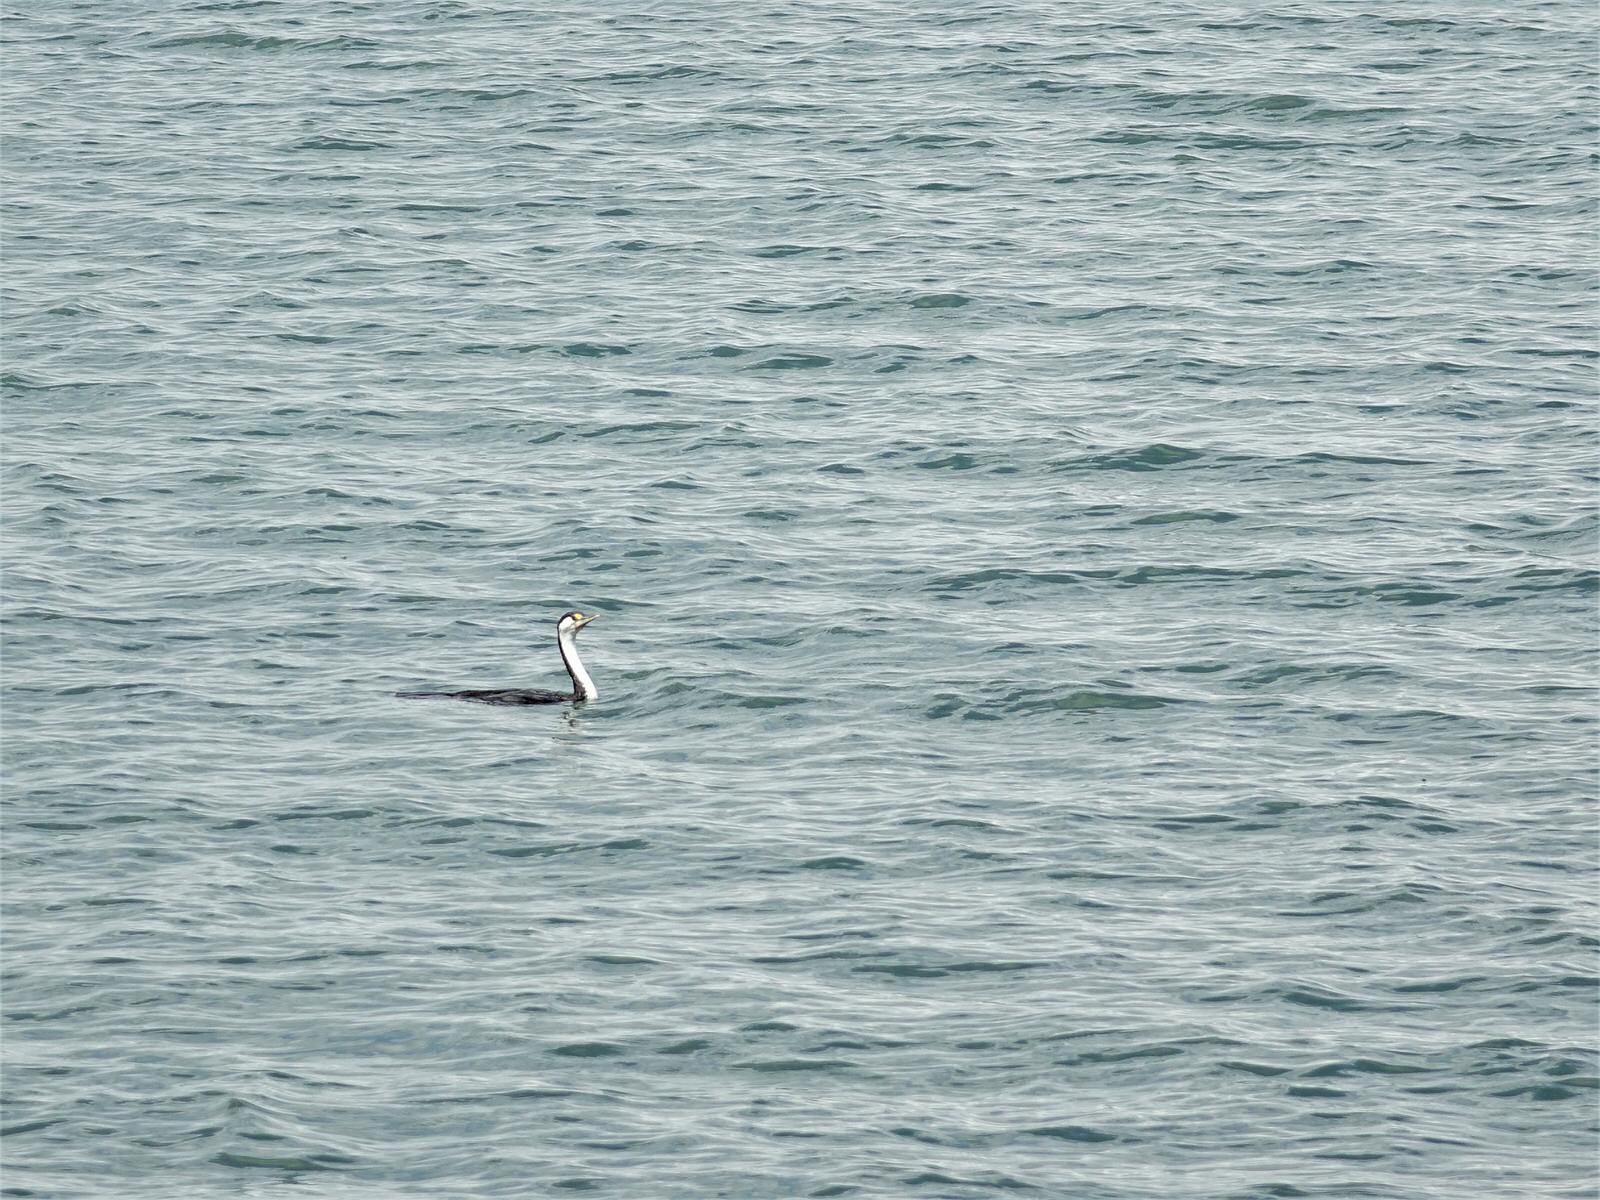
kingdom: Animalia
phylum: Chordata
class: Aves
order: Suliformes
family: Phalacrocoracidae
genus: Phalacrocorax
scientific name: Phalacrocorax varius
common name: Pied cormorant
